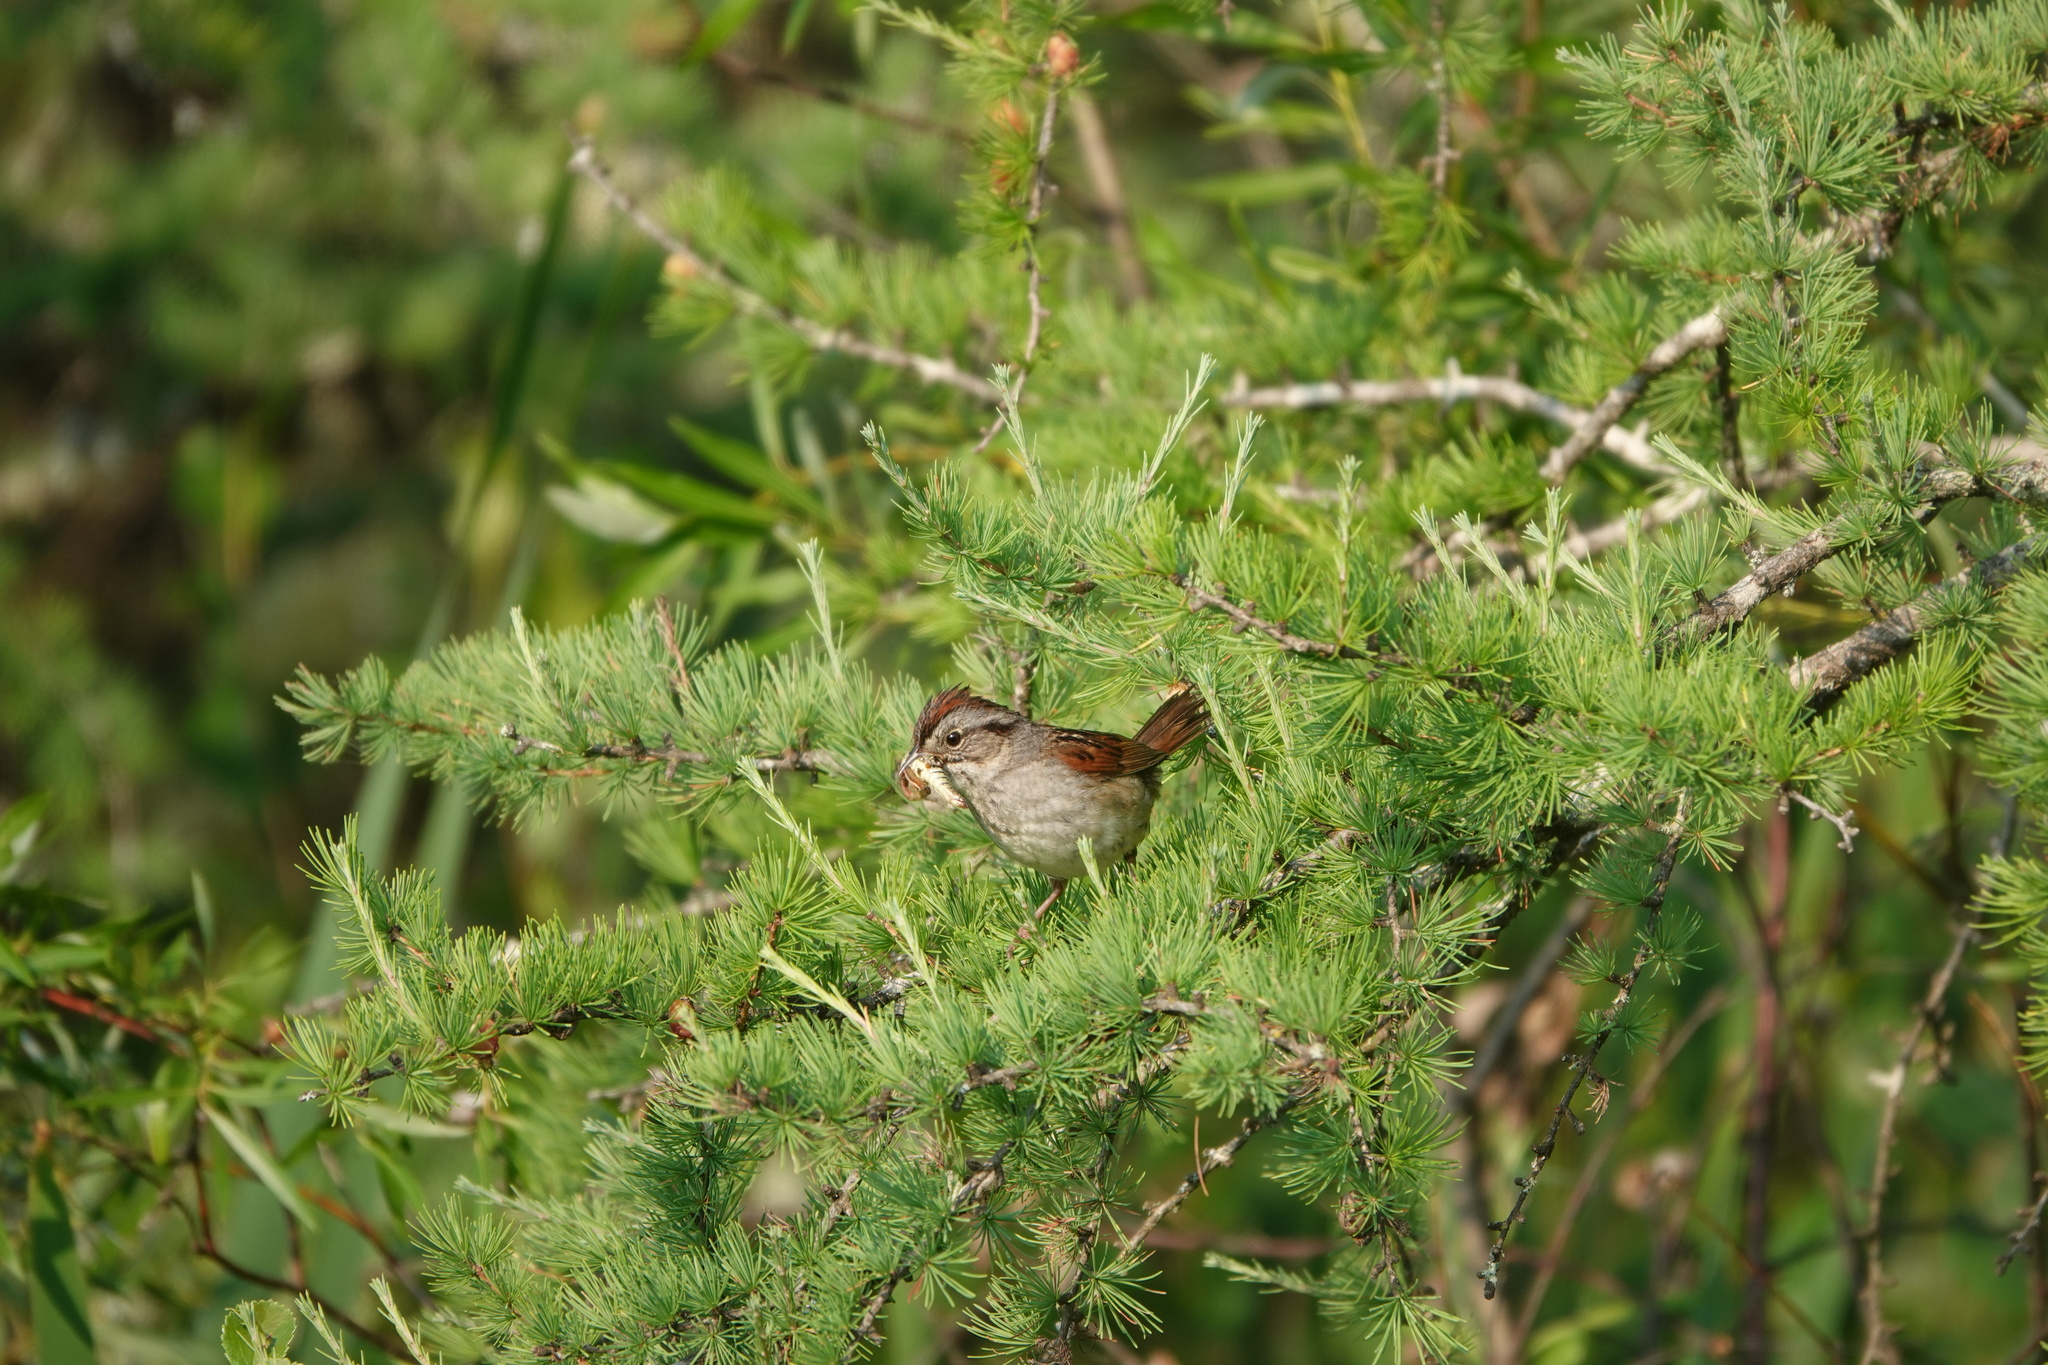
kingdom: Animalia
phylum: Chordata
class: Aves
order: Passeriformes
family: Passerellidae
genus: Melospiza
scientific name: Melospiza georgiana
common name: Swamp sparrow
